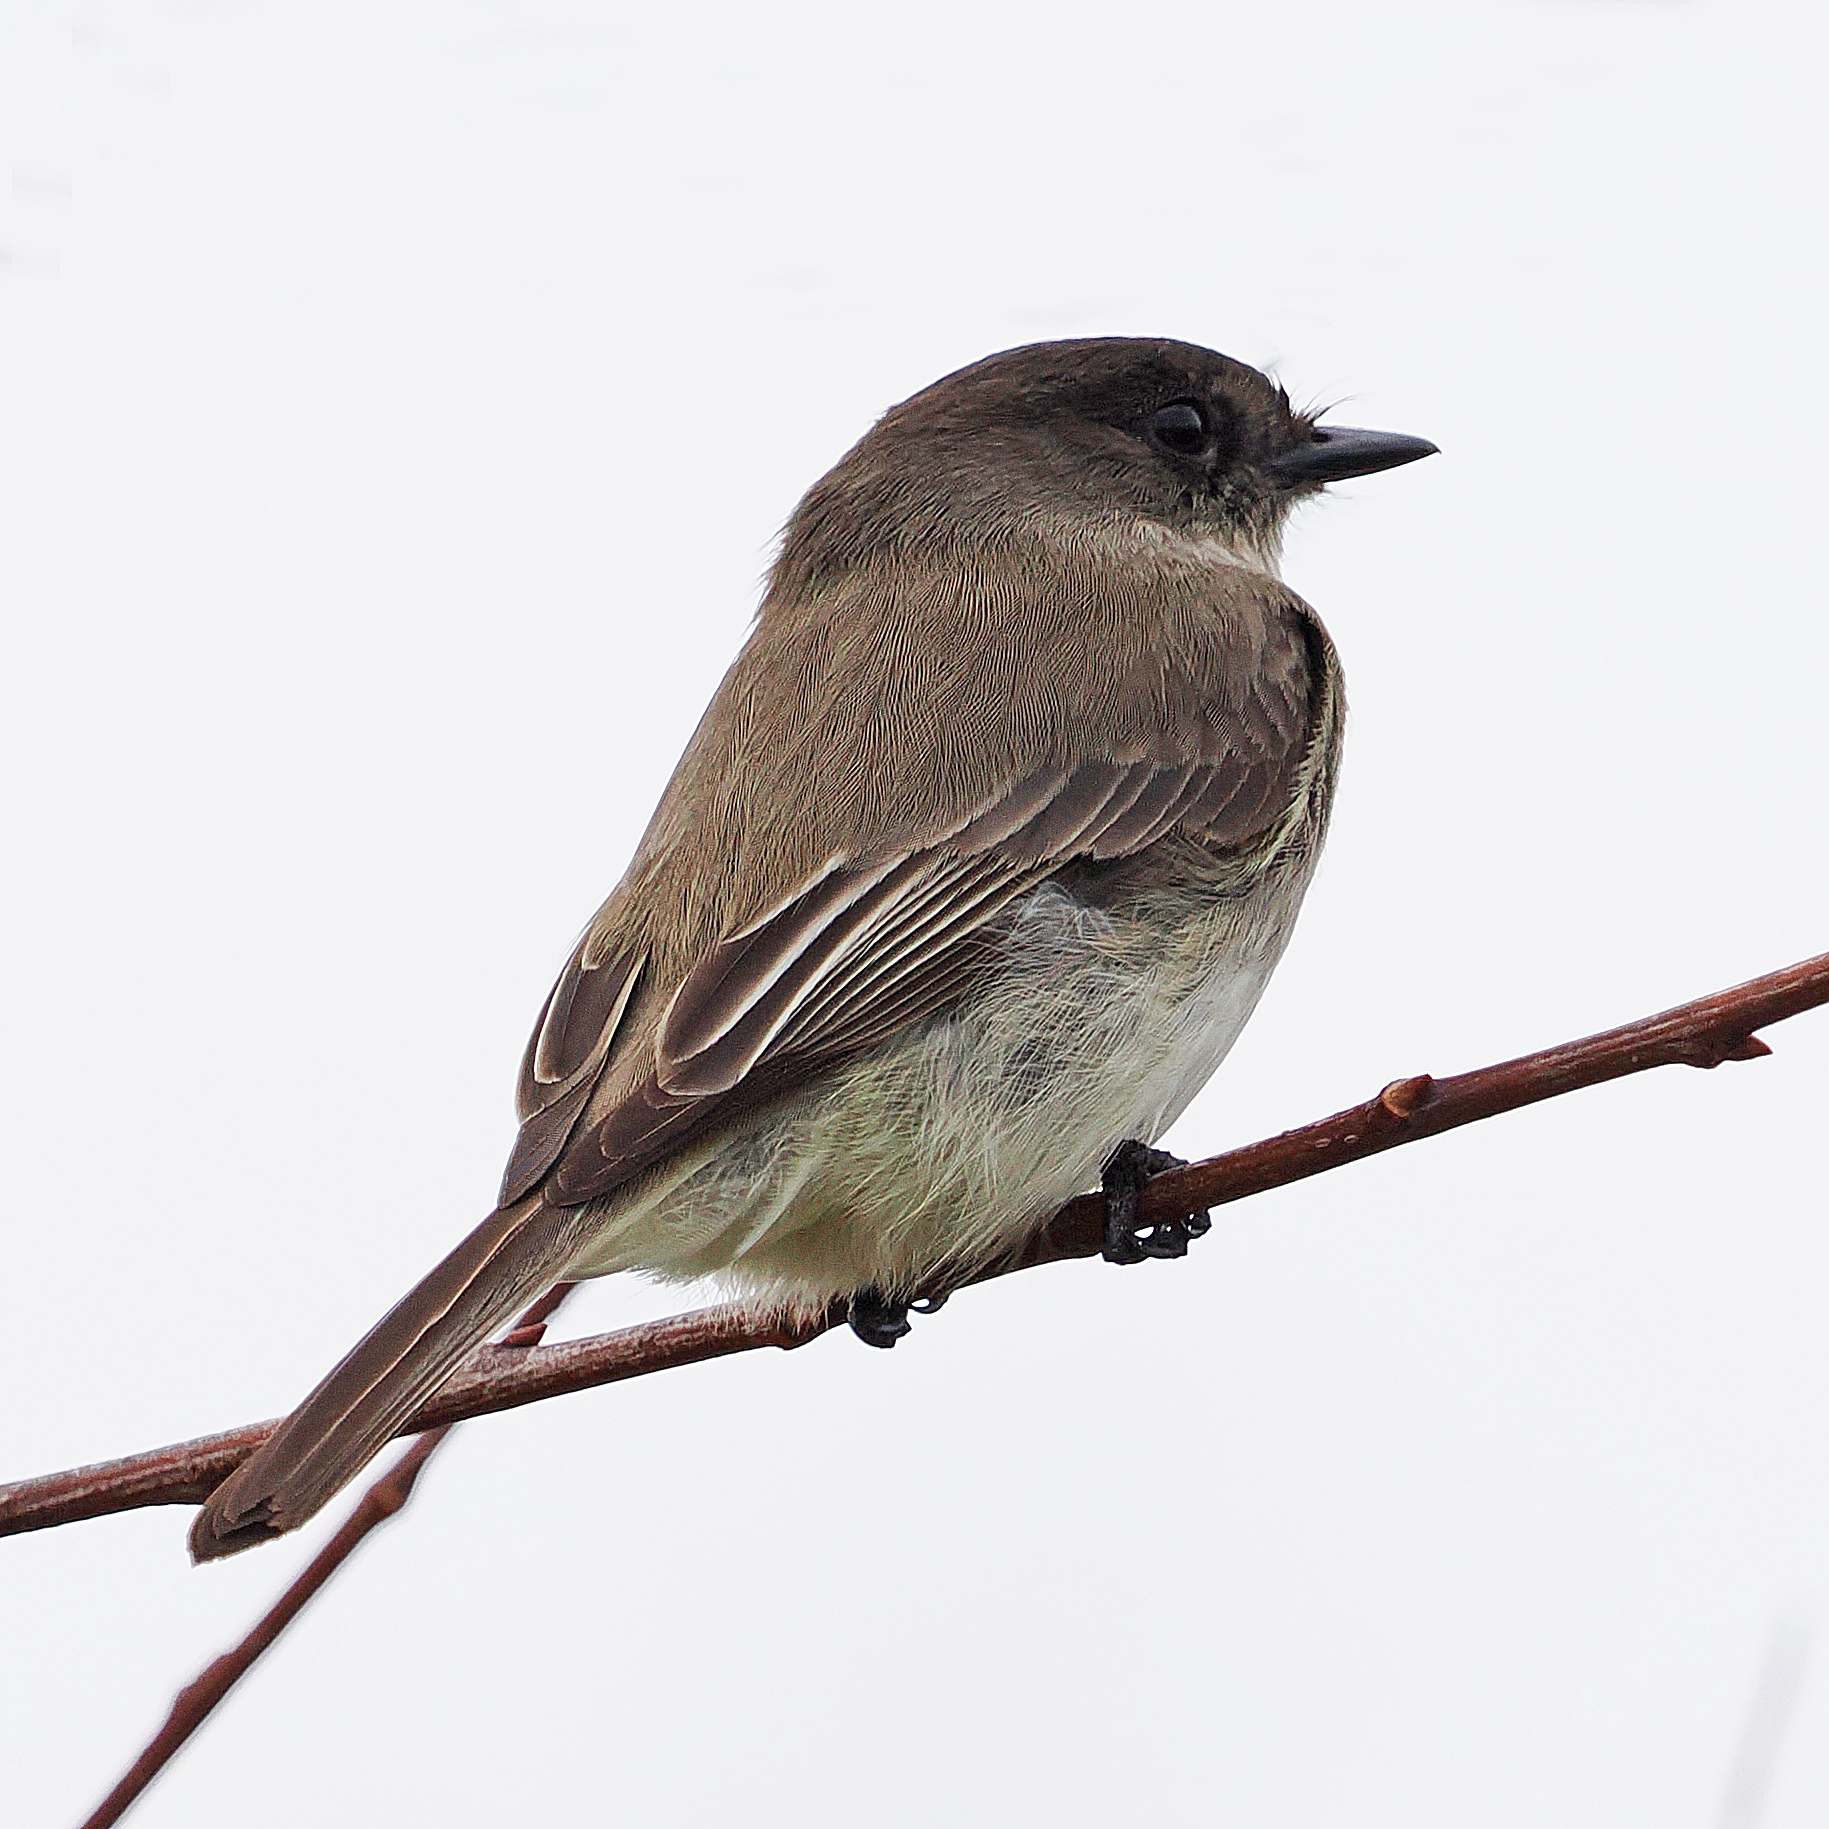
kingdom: Animalia
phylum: Chordata
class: Aves
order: Passeriformes
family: Tyrannidae
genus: Sayornis
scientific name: Sayornis phoebe
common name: Eastern phoebe
